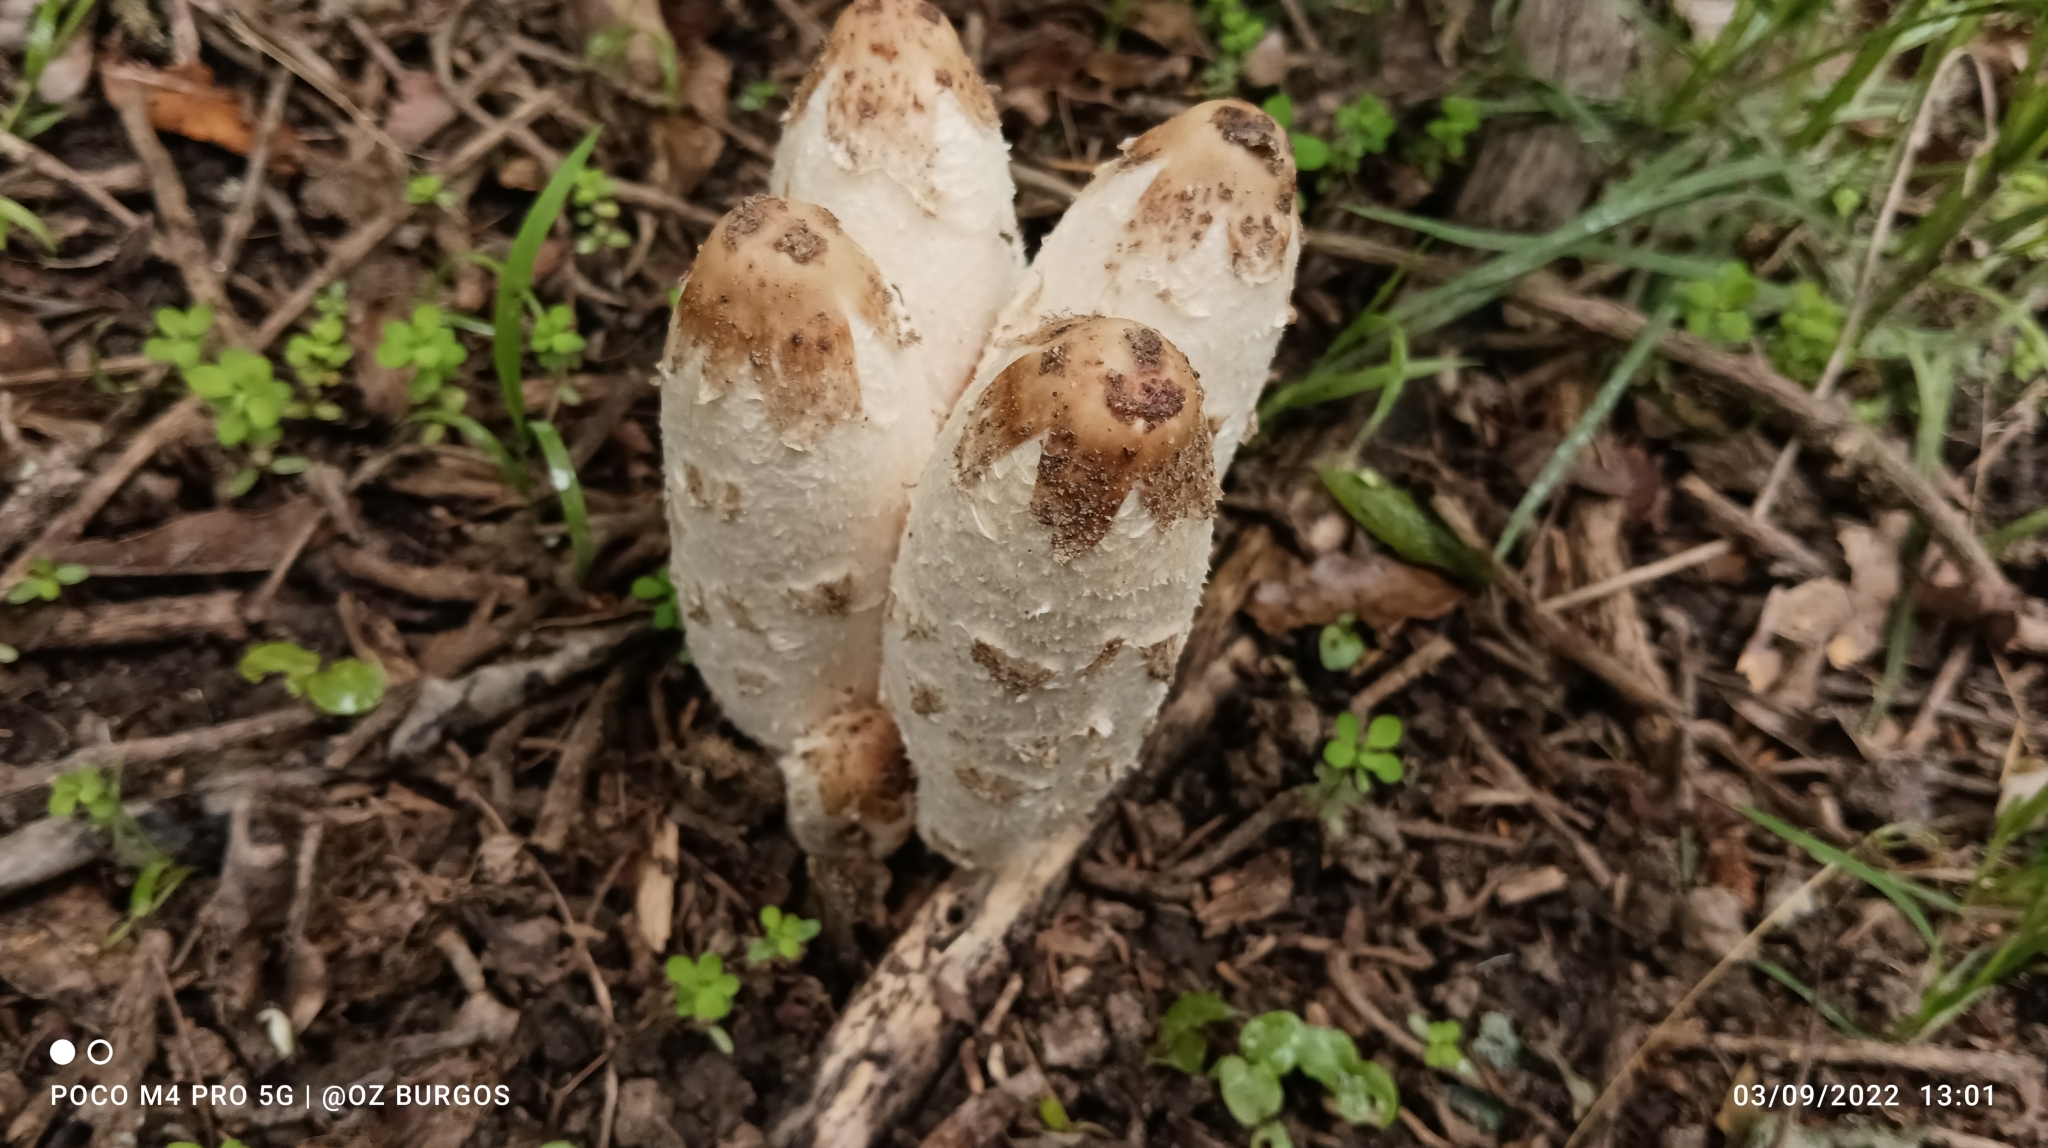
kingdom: Fungi
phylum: Basidiomycota
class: Agaricomycetes
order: Agaricales
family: Agaricaceae
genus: Coprinus
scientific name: Coprinus comatus
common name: Lawyer's wig
